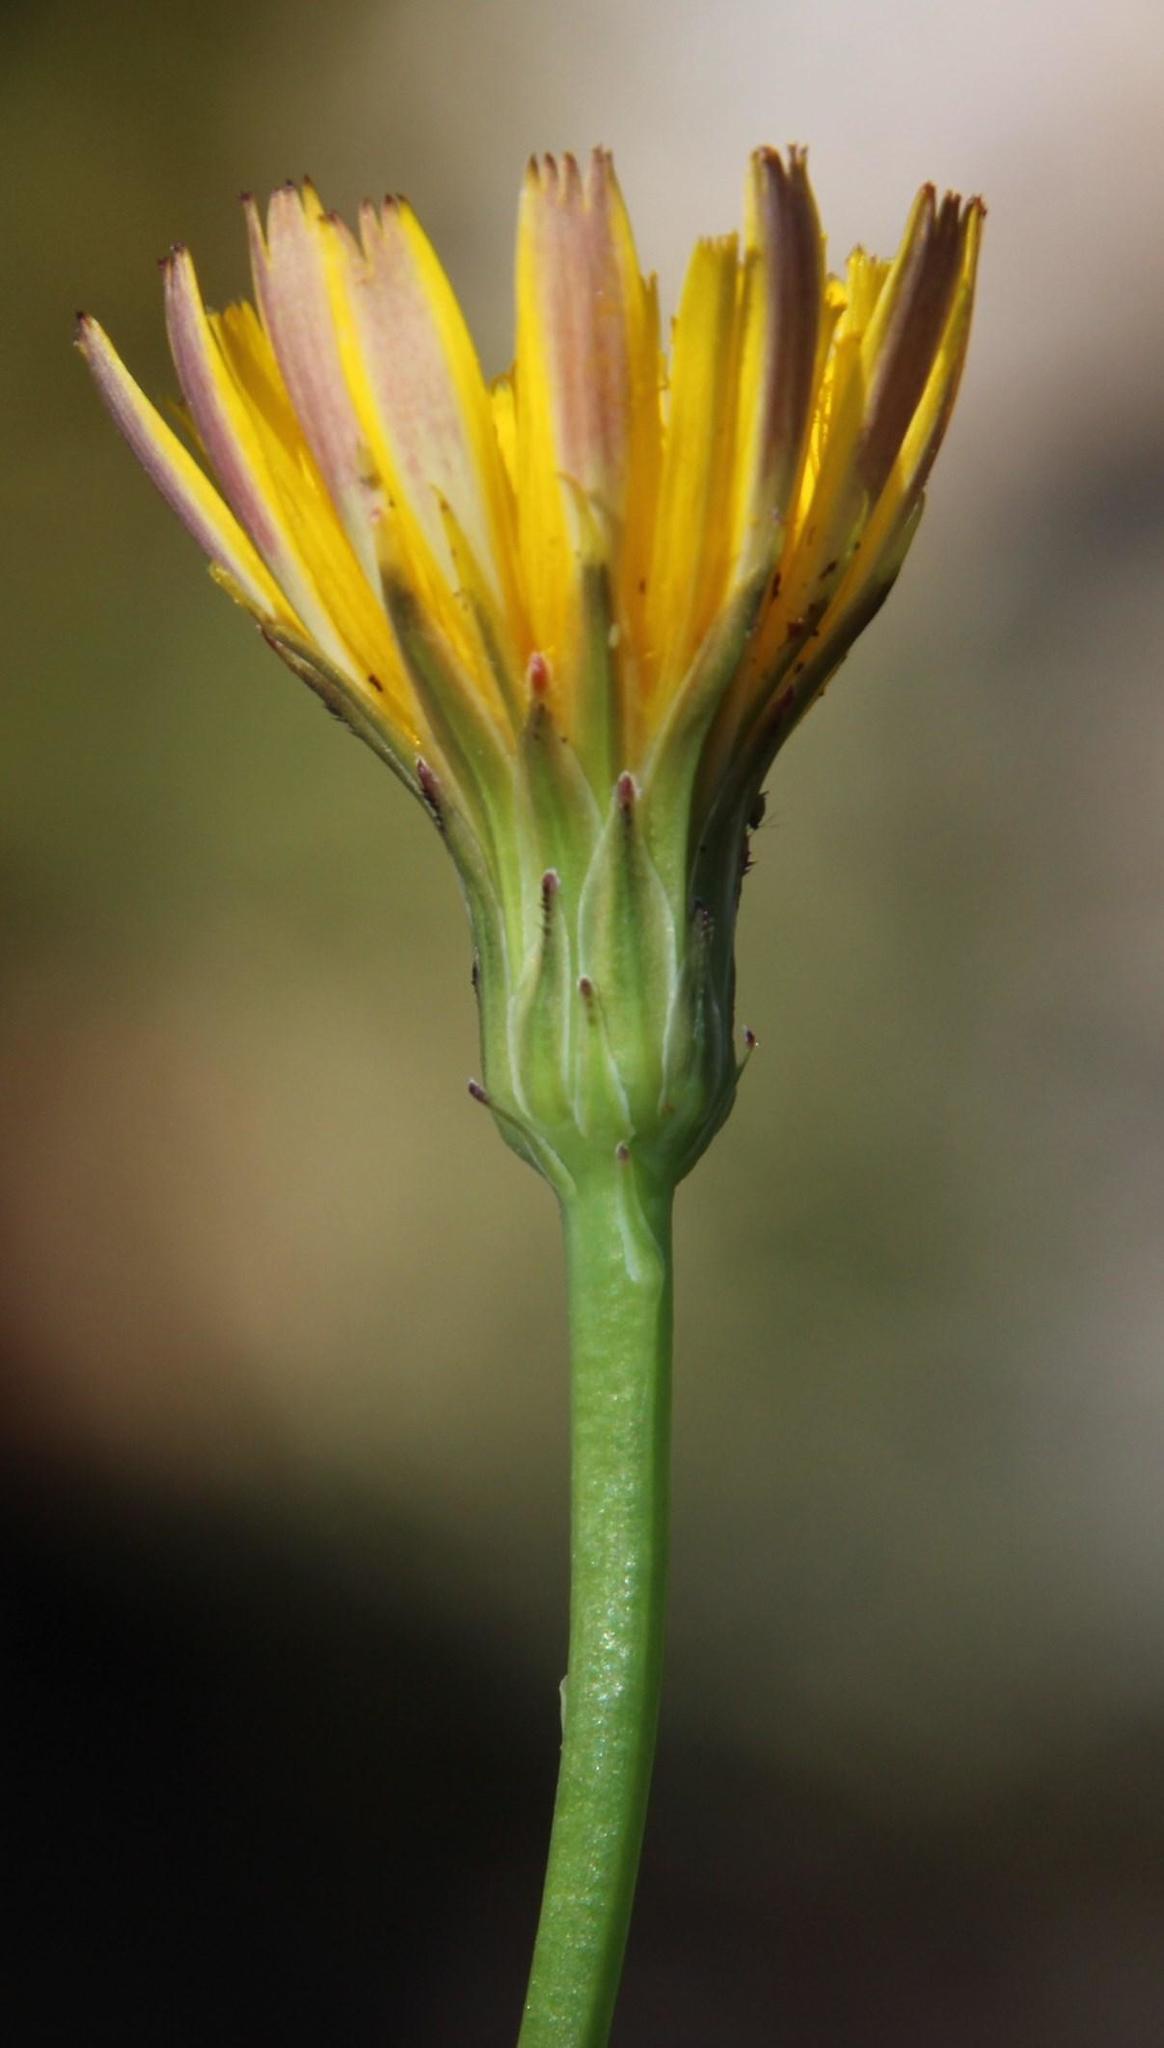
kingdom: Plantae
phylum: Tracheophyta
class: Magnoliopsida
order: Asterales
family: Asteraceae
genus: Hypochaeris
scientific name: Hypochaeris radicata
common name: Flatweed
